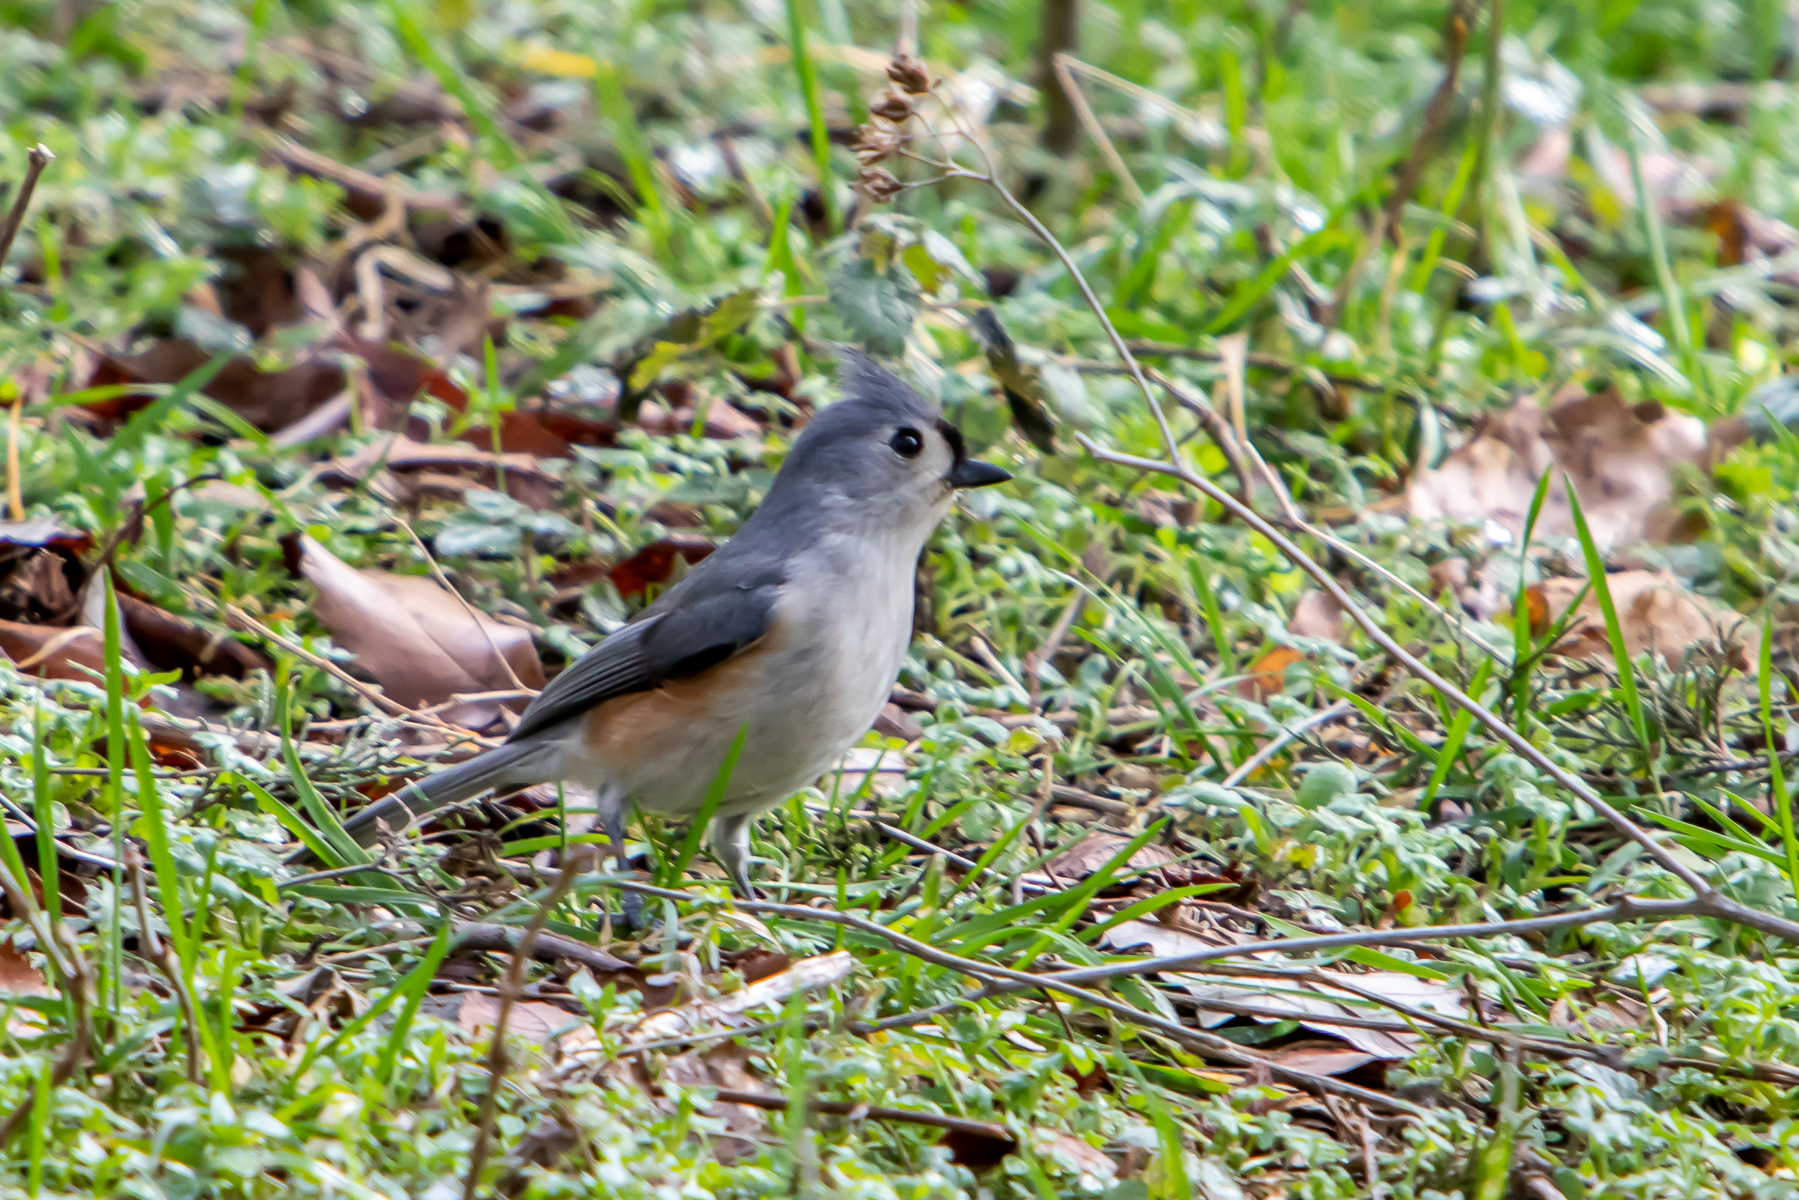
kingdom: Animalia
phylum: Chordata
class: Aves
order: Passeriformes
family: Paridae
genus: Baeolophus
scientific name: Baeolophus bicolor
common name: Tufted titmouse
